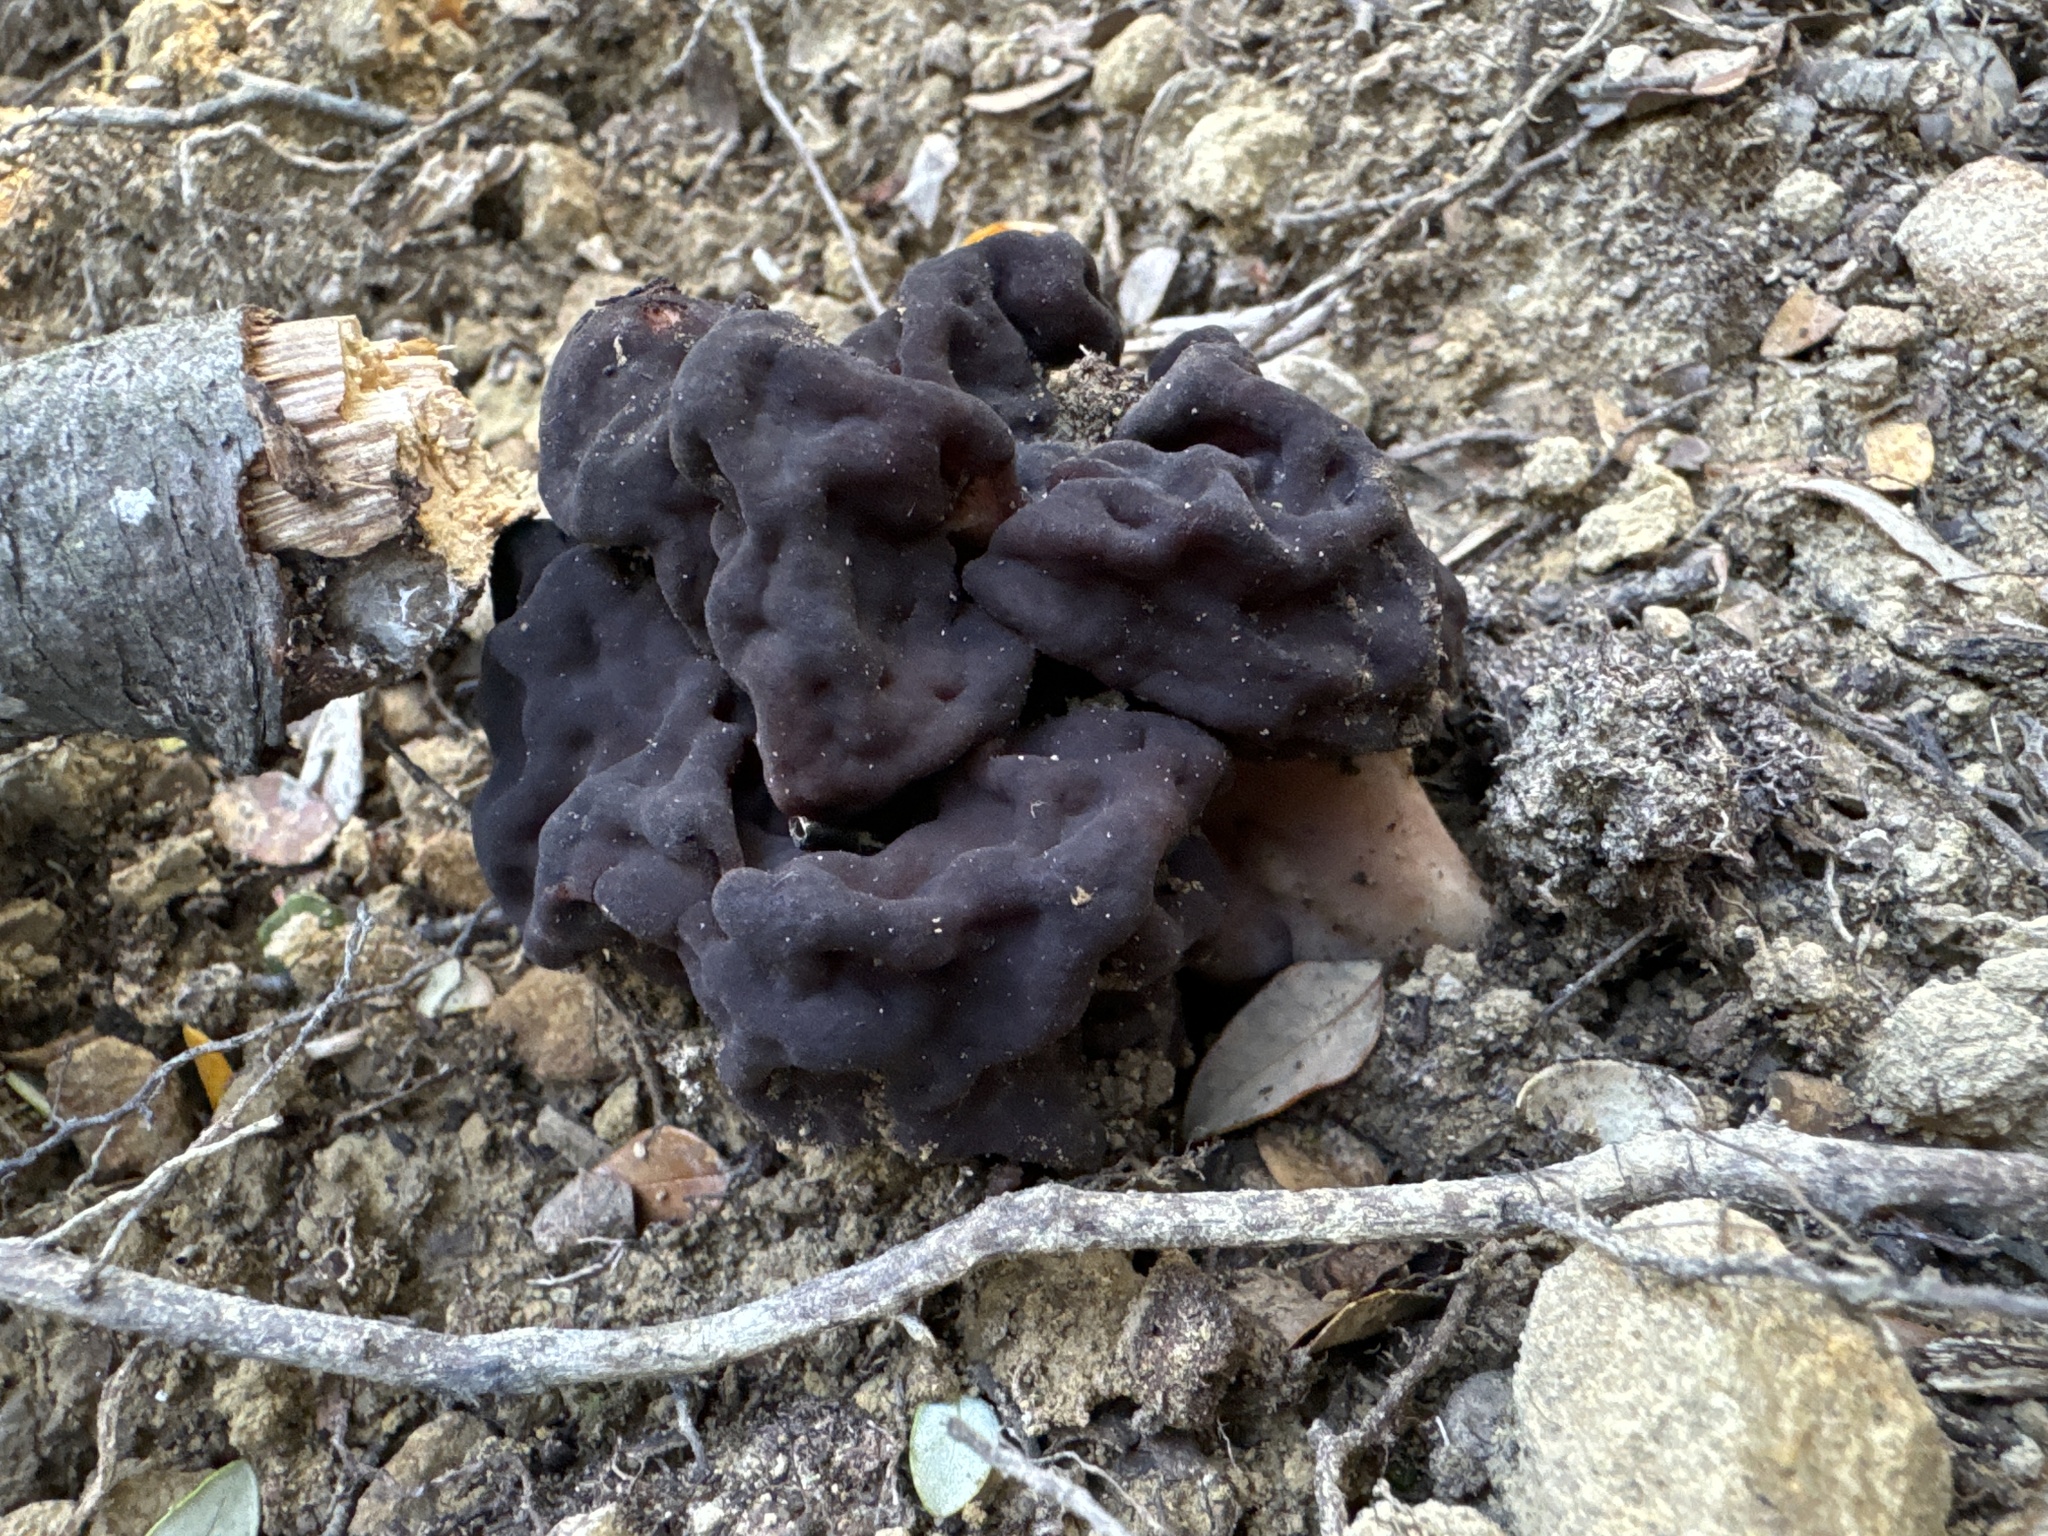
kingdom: Fungi
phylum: Ascomycota
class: Pezizomycetes
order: Pezizales
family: Discinaceae
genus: Gyromitra
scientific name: Gyromitra tasmanica
